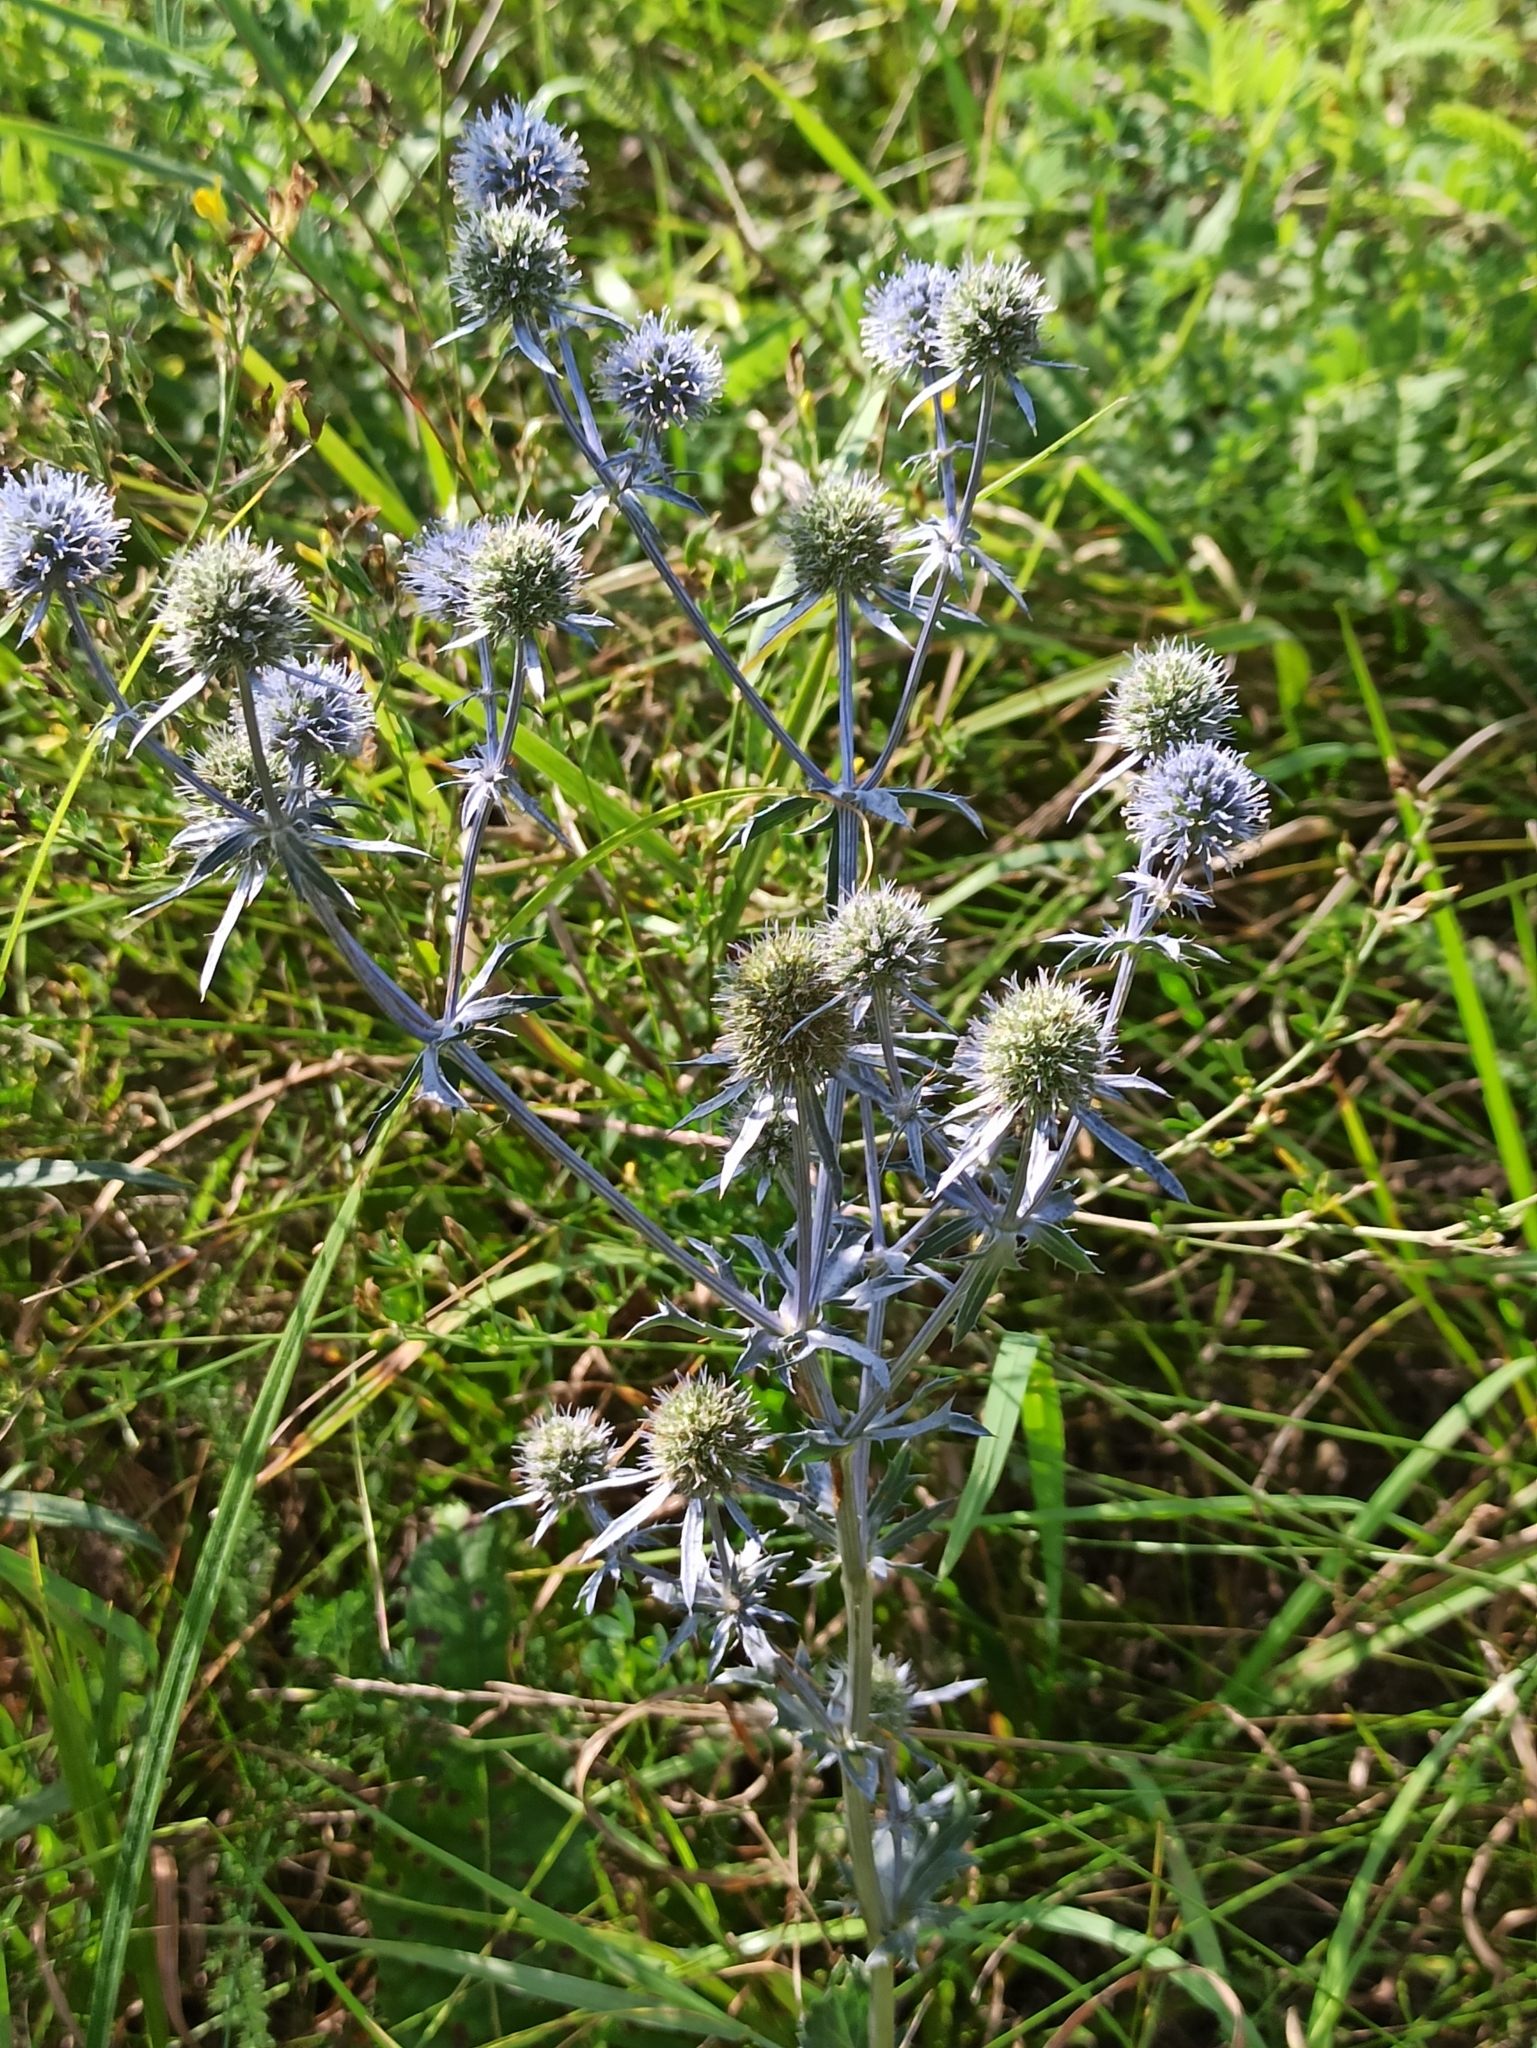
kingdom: Plantae
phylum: Tracheophyta
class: Magnoliopsida
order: Apiales
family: Apiaceae
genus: Eryngium
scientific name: Eryngium planum
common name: Blue eryngo
